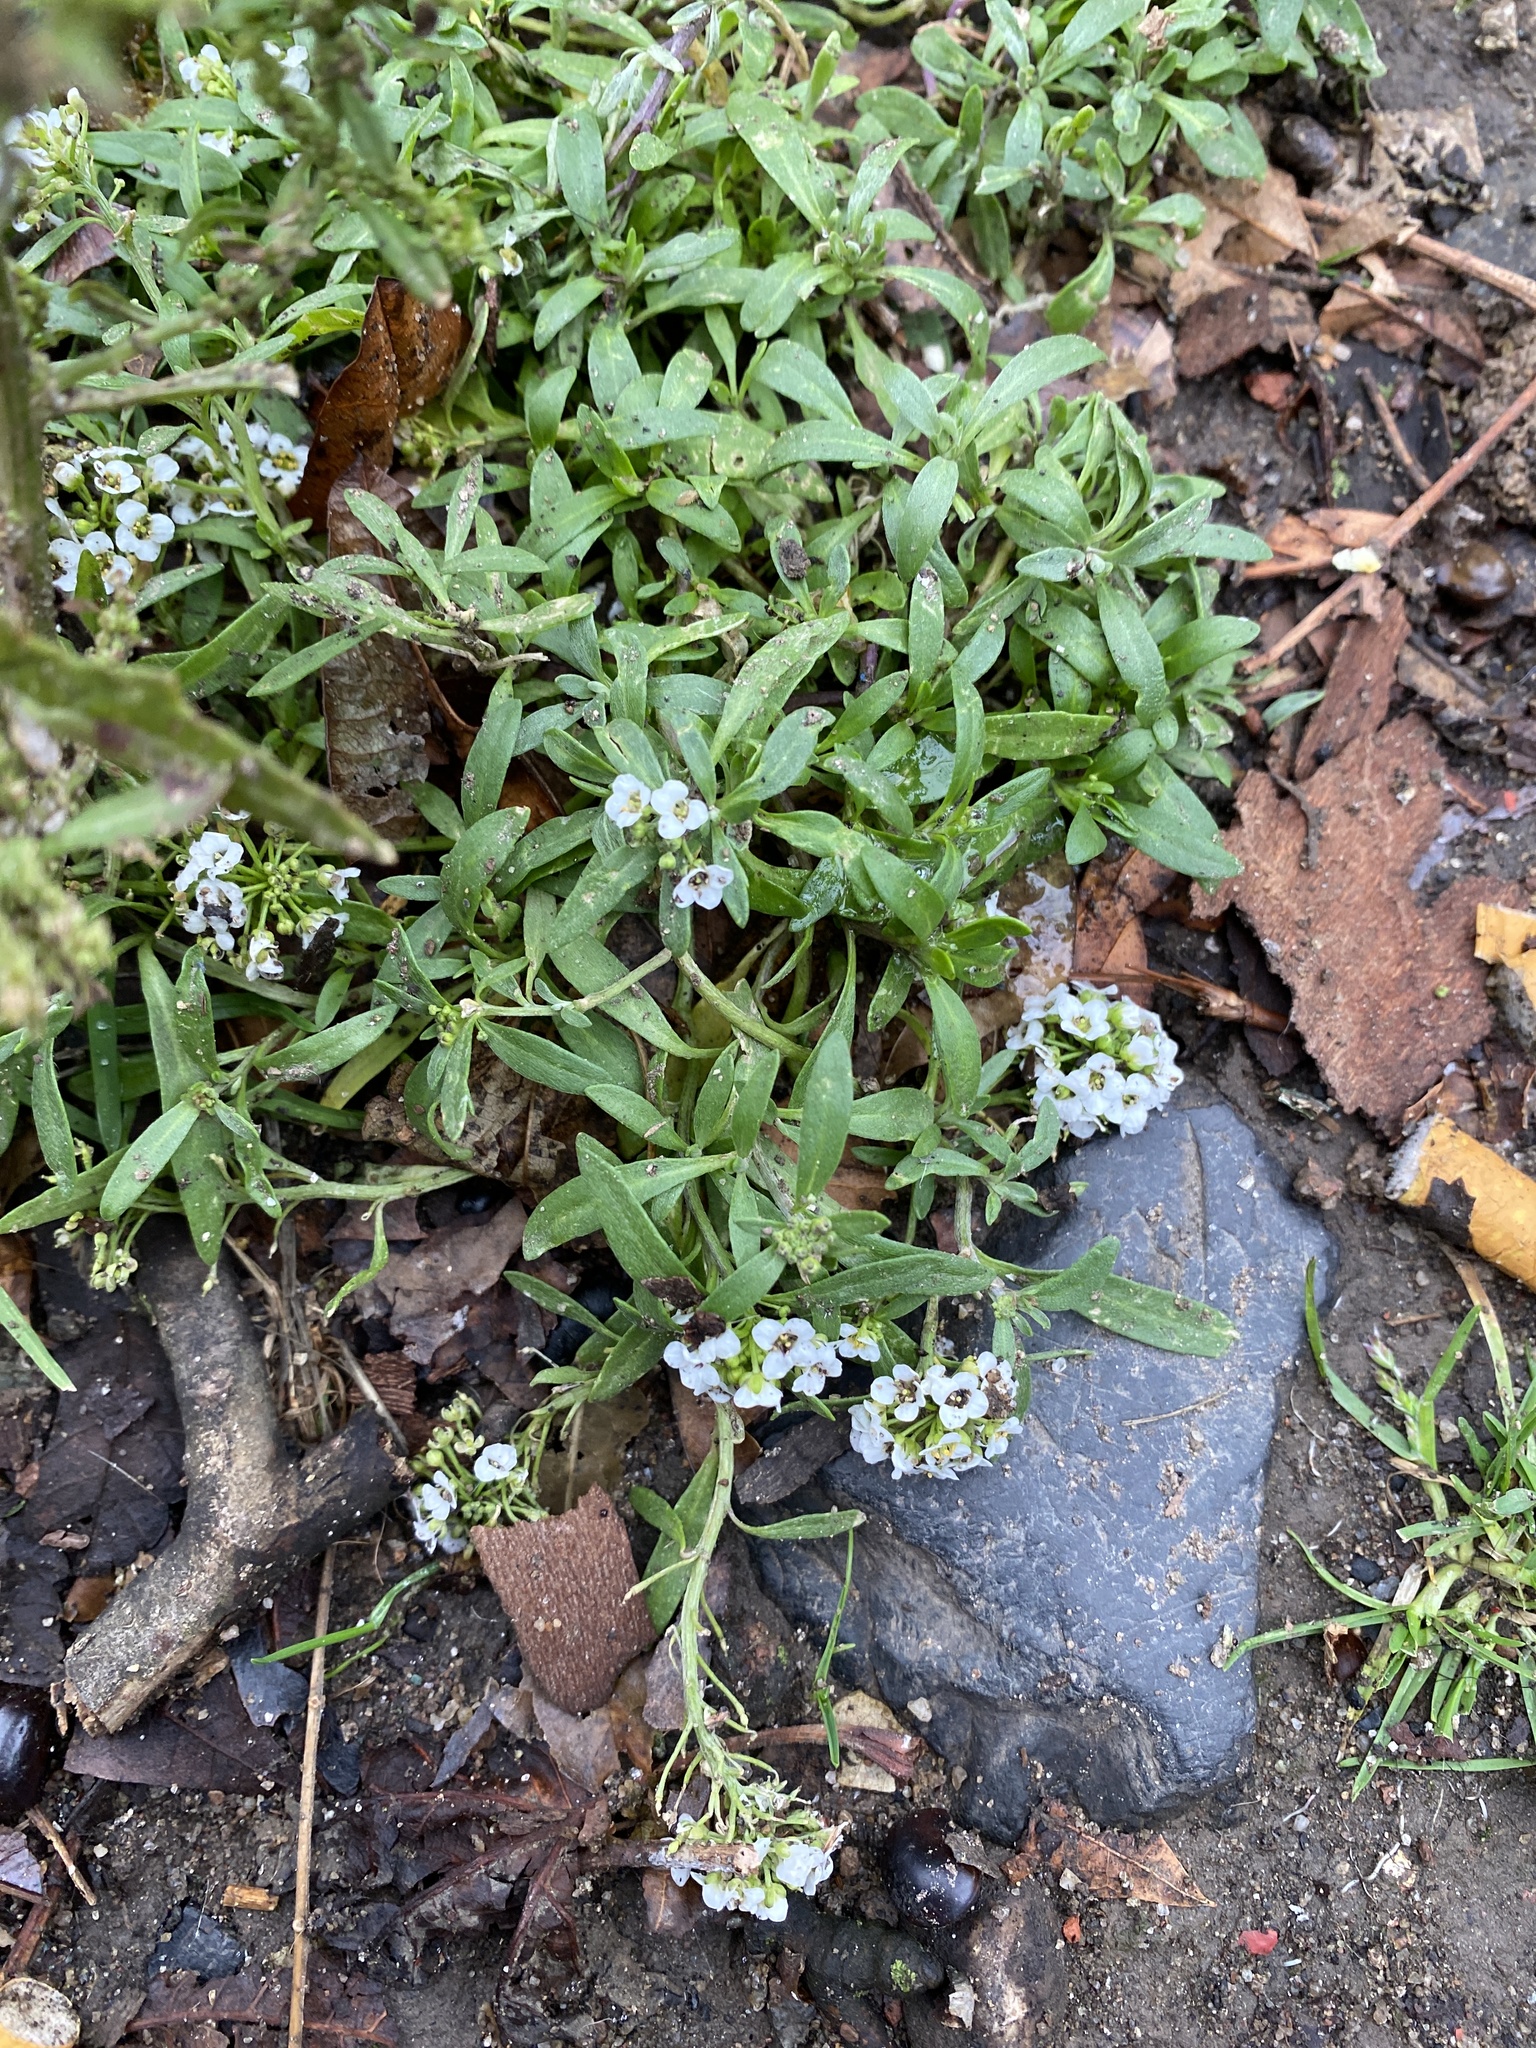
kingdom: Plantae
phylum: Tracheophyta
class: Magnoliopsida
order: Brassicales
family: Brassicaceae
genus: Lobularia
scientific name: Lobularia maritima
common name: Sweet alison
